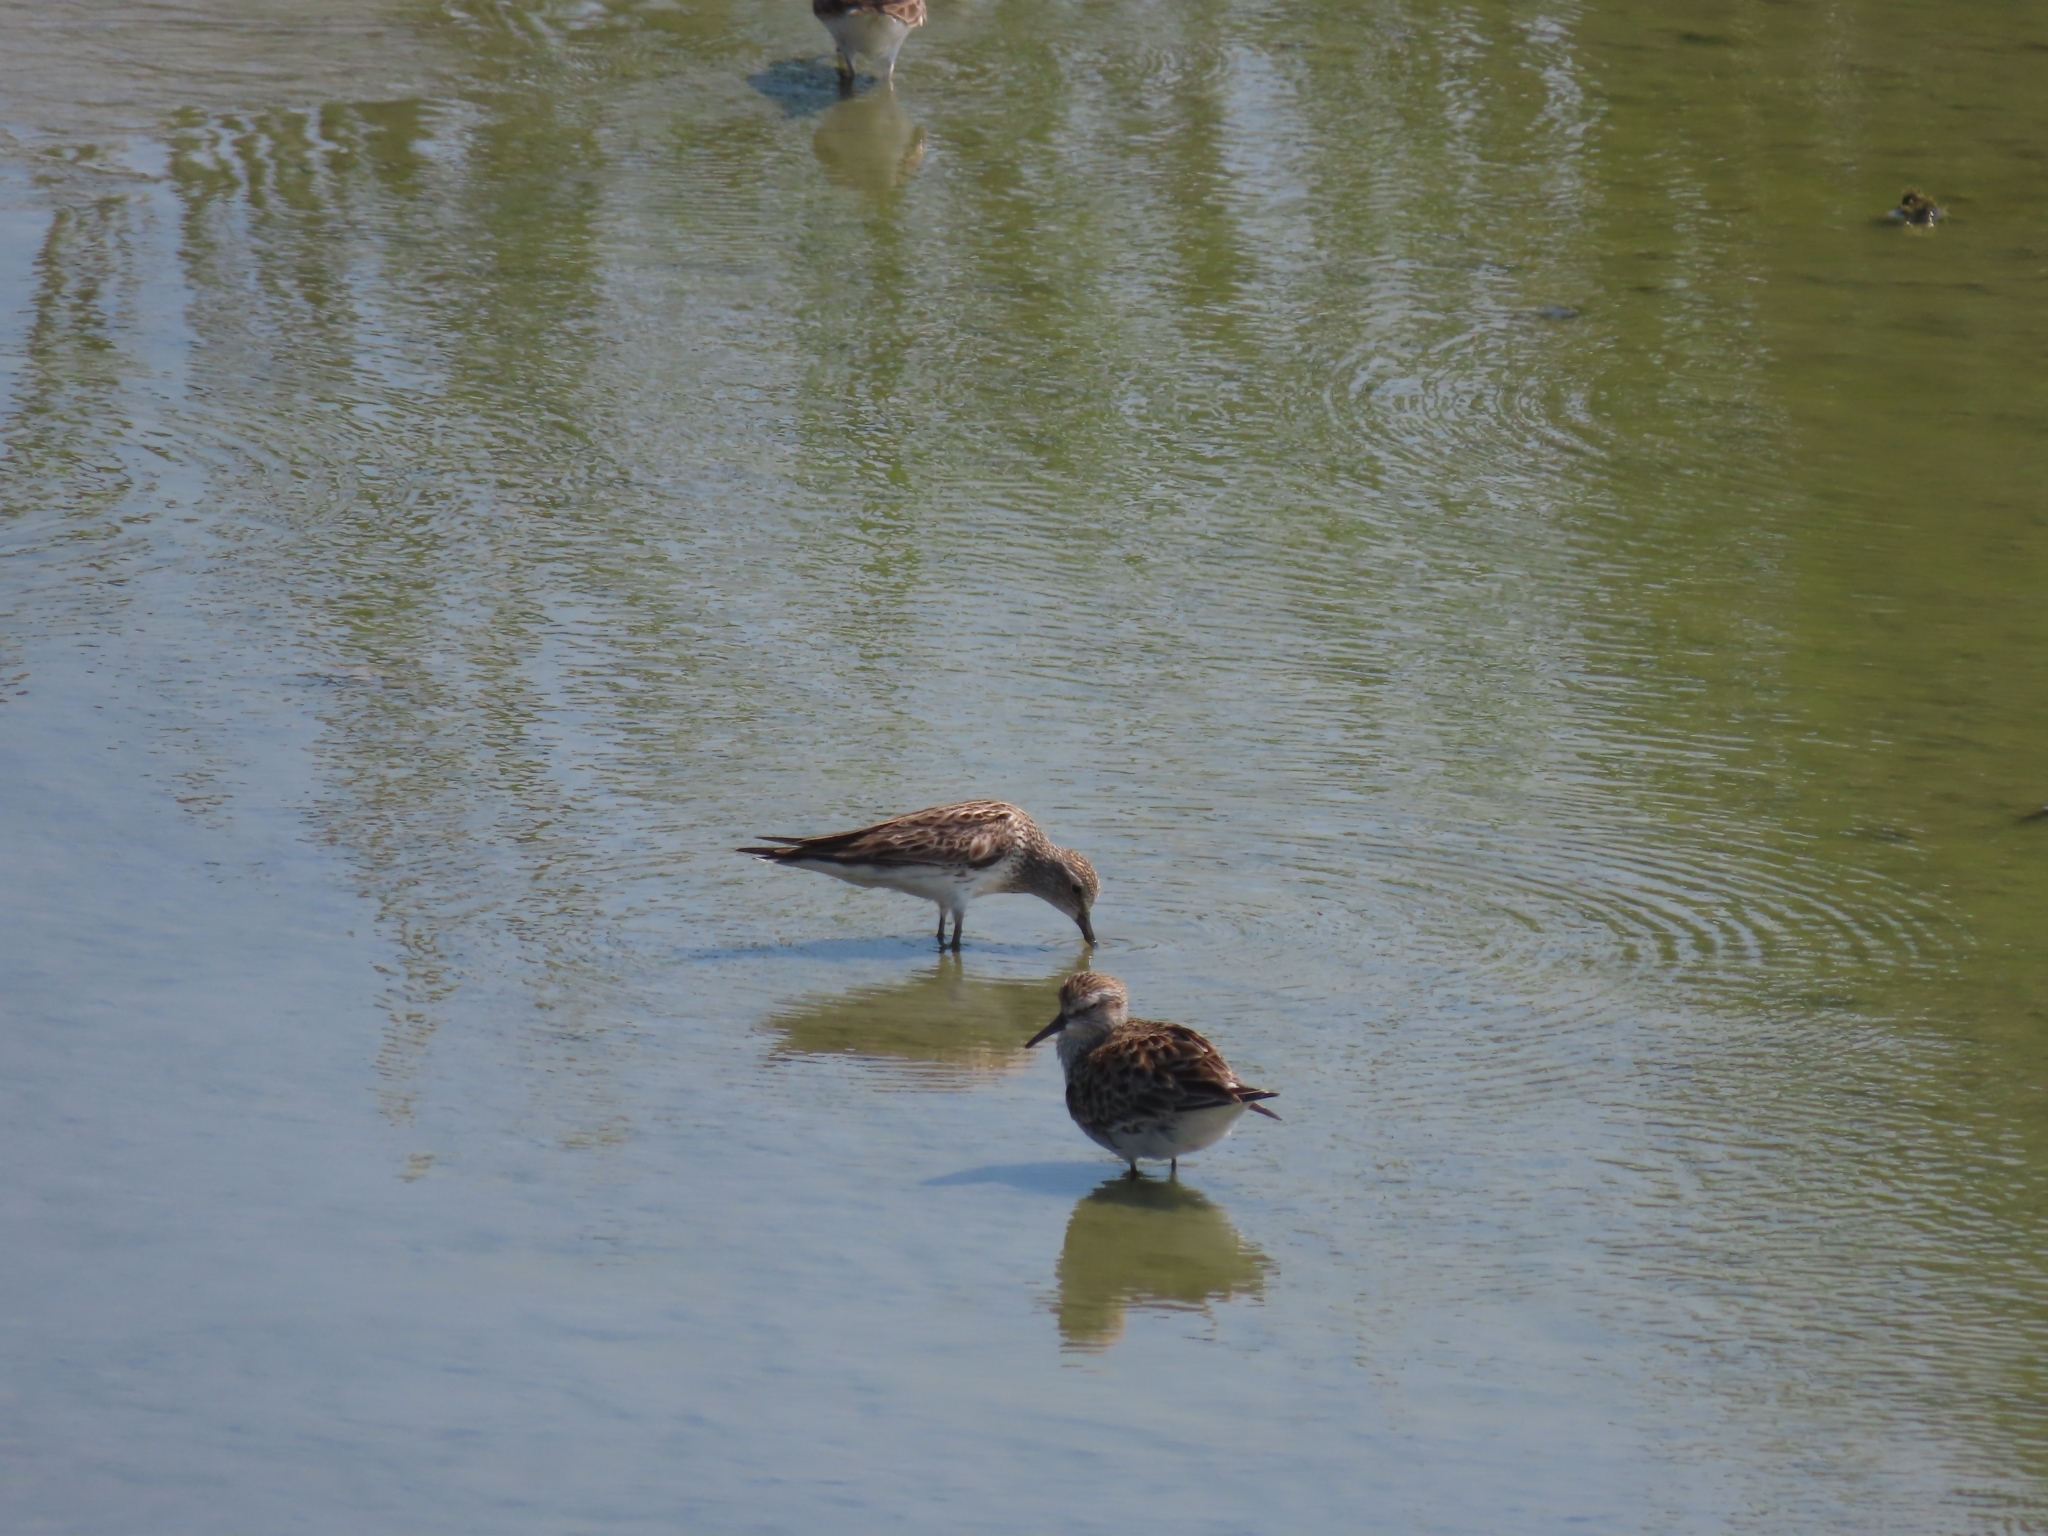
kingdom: Animalia
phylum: Chordata
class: Aves
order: Charadriiformes
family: Scolopacidae
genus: Calidris
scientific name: Calidris fuscicollis
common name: White-rumped sandpiper
